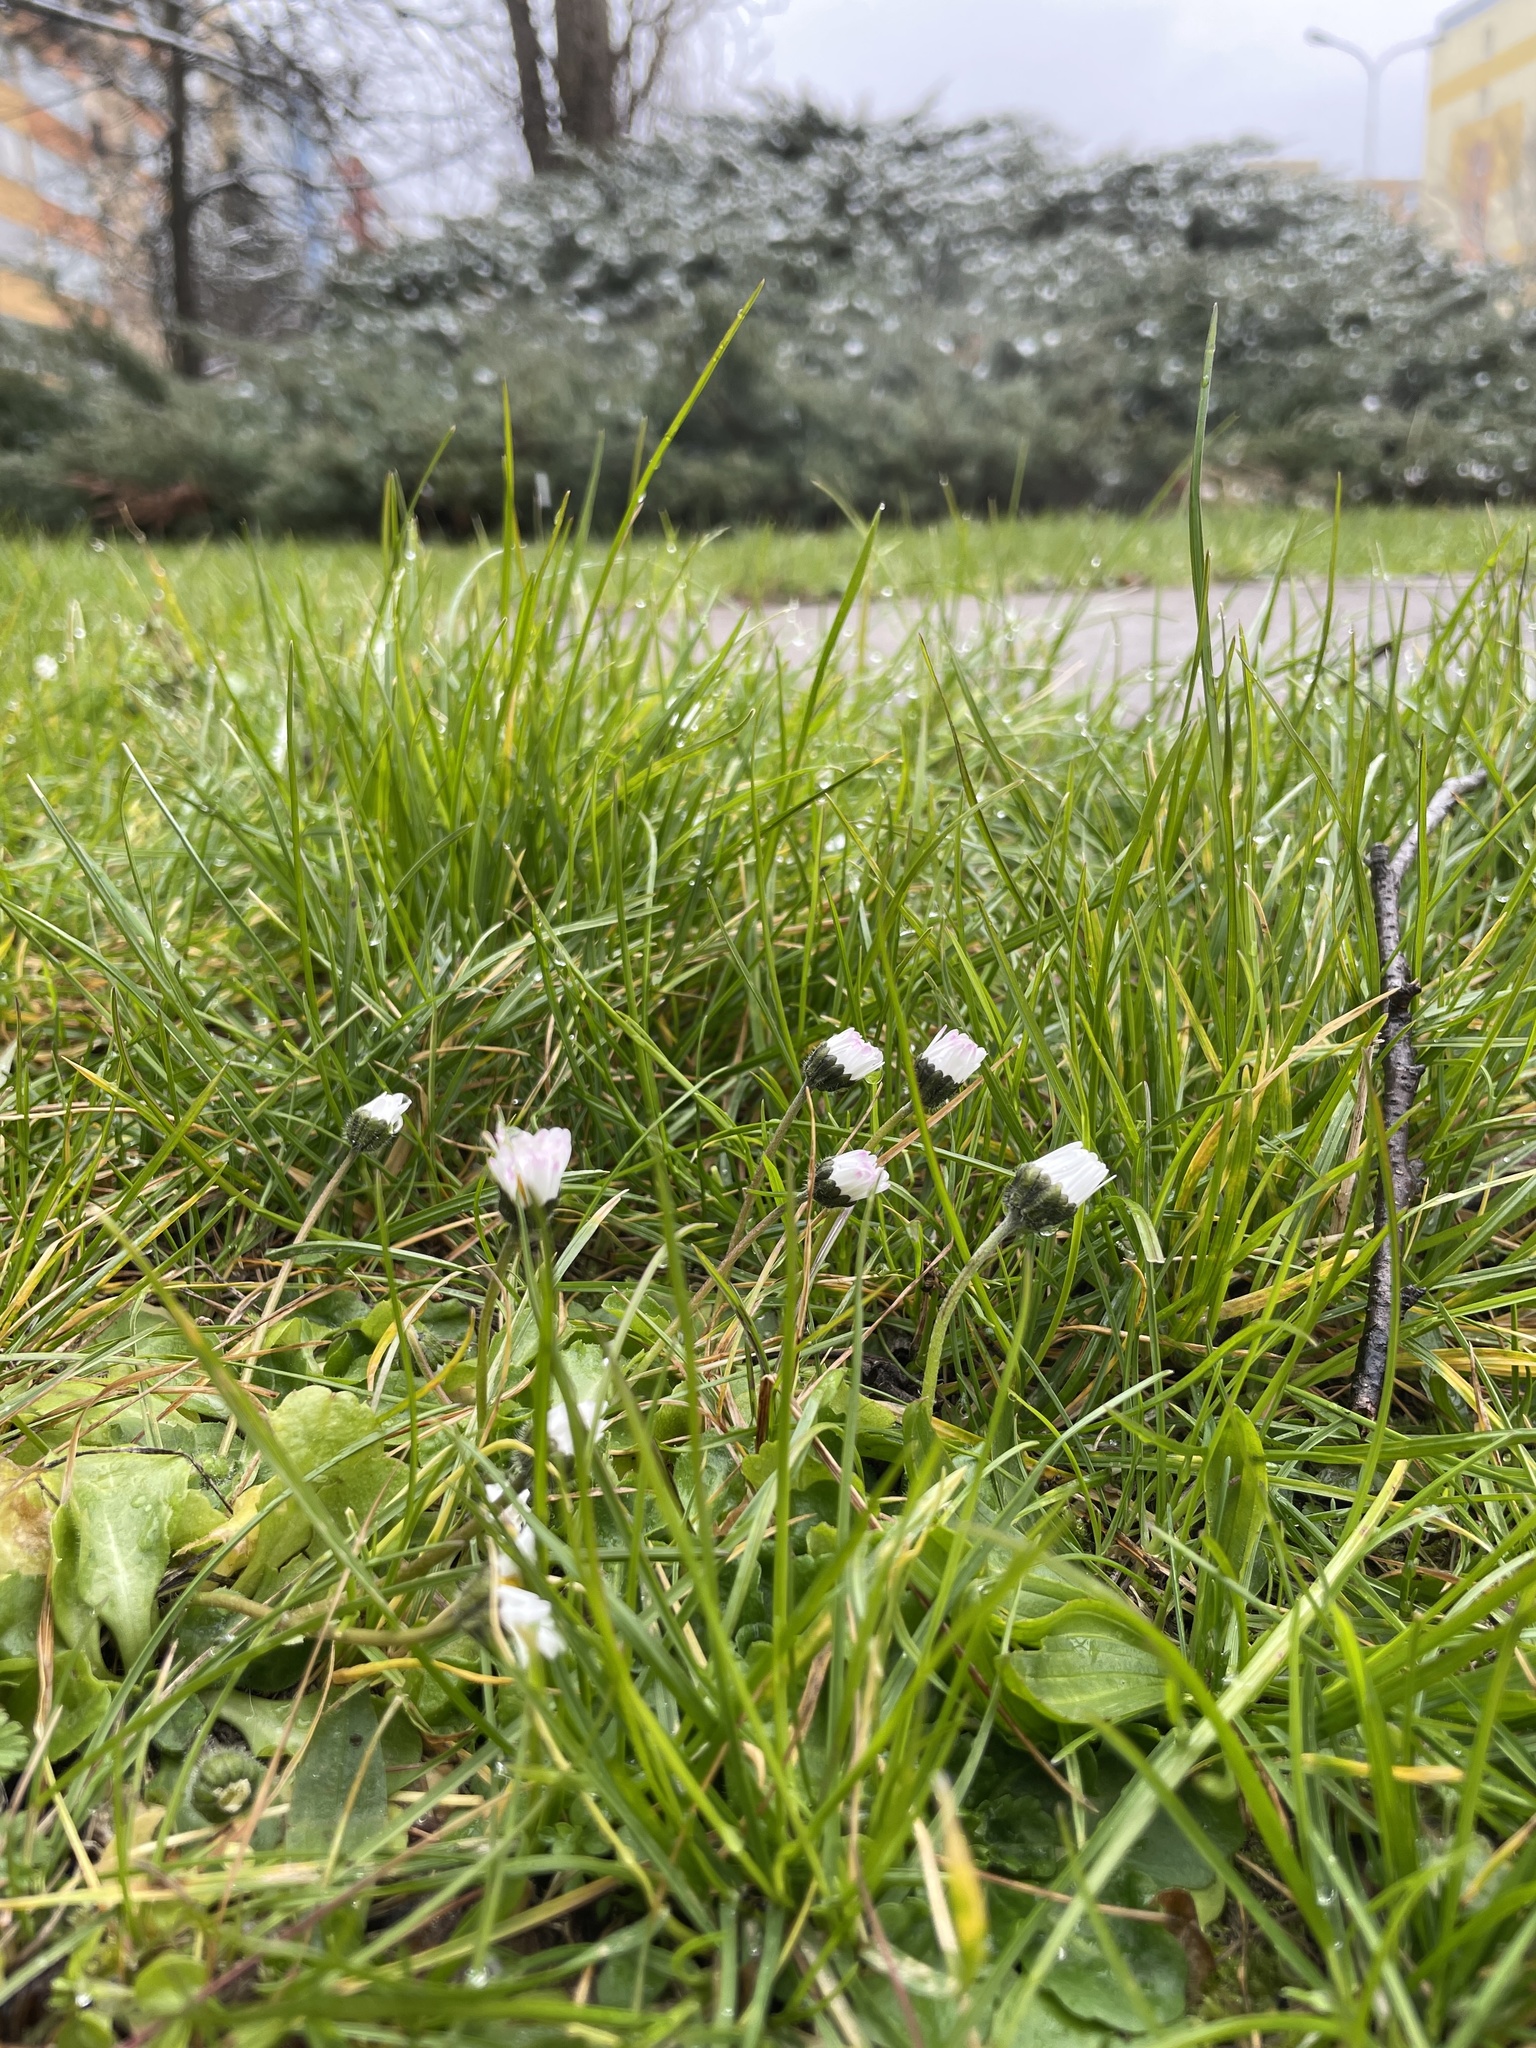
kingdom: Plantae
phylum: Tracheophyta
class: Magnoliopsida
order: Asterales
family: Asteraceae
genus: Bellis
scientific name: Bellis perennis
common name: Lawndaisy
